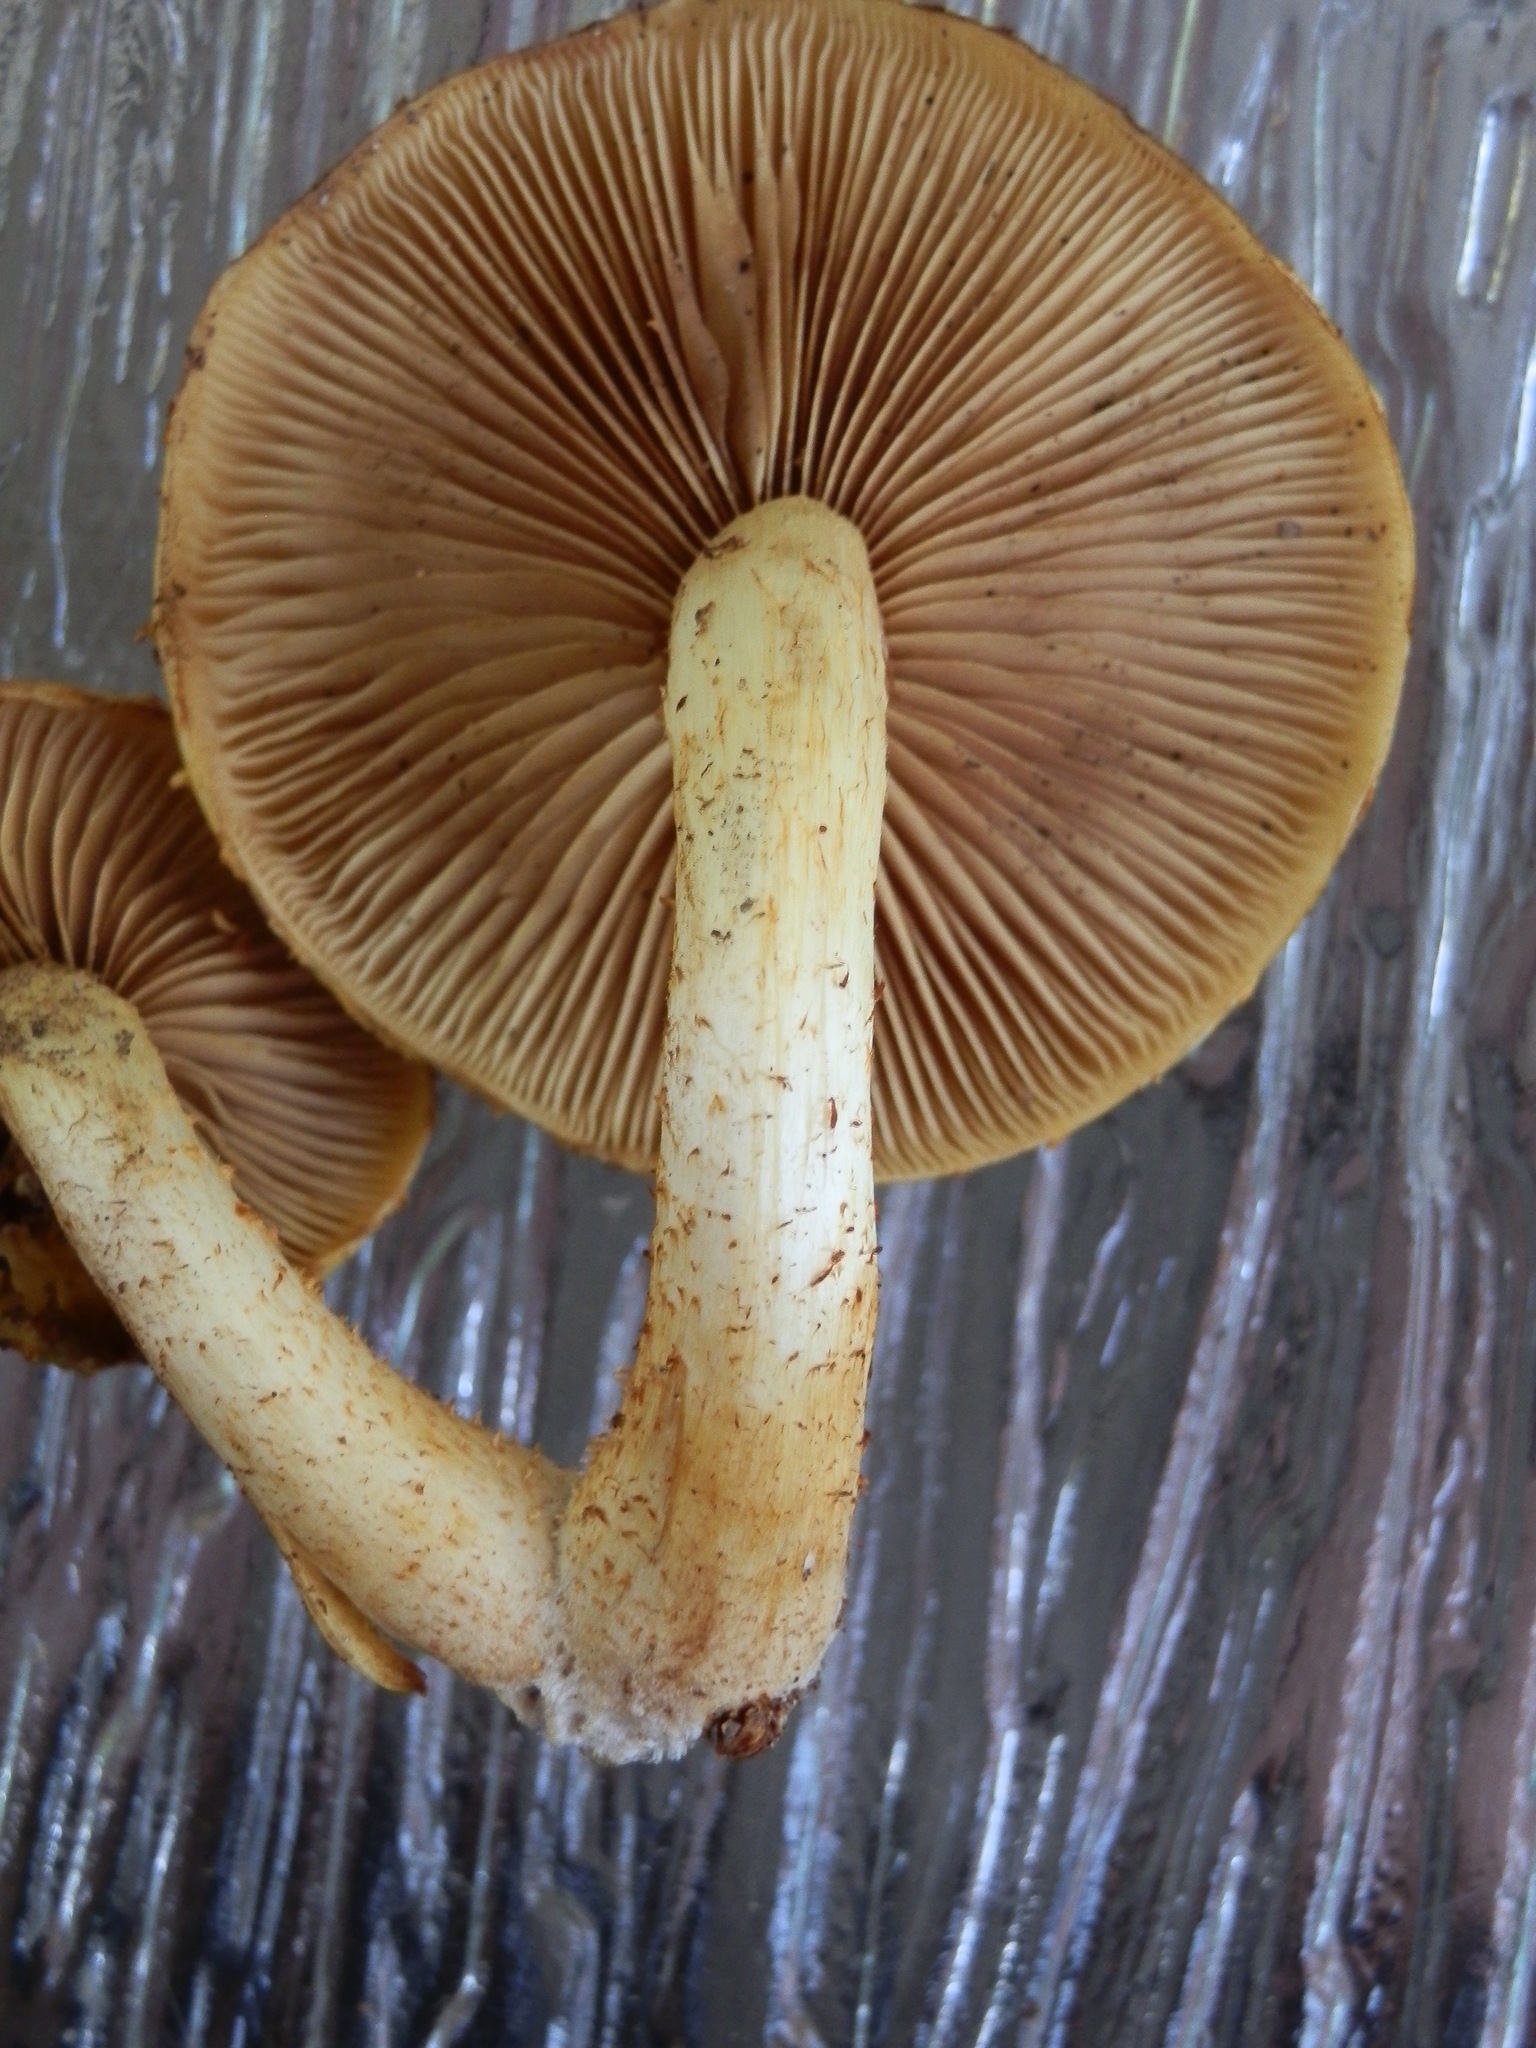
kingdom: Fungi
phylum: Basidiomycota
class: Agaricomycetes
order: Agaricales
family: Strophariaceae
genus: Pholiota
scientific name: Pholiota limonella
